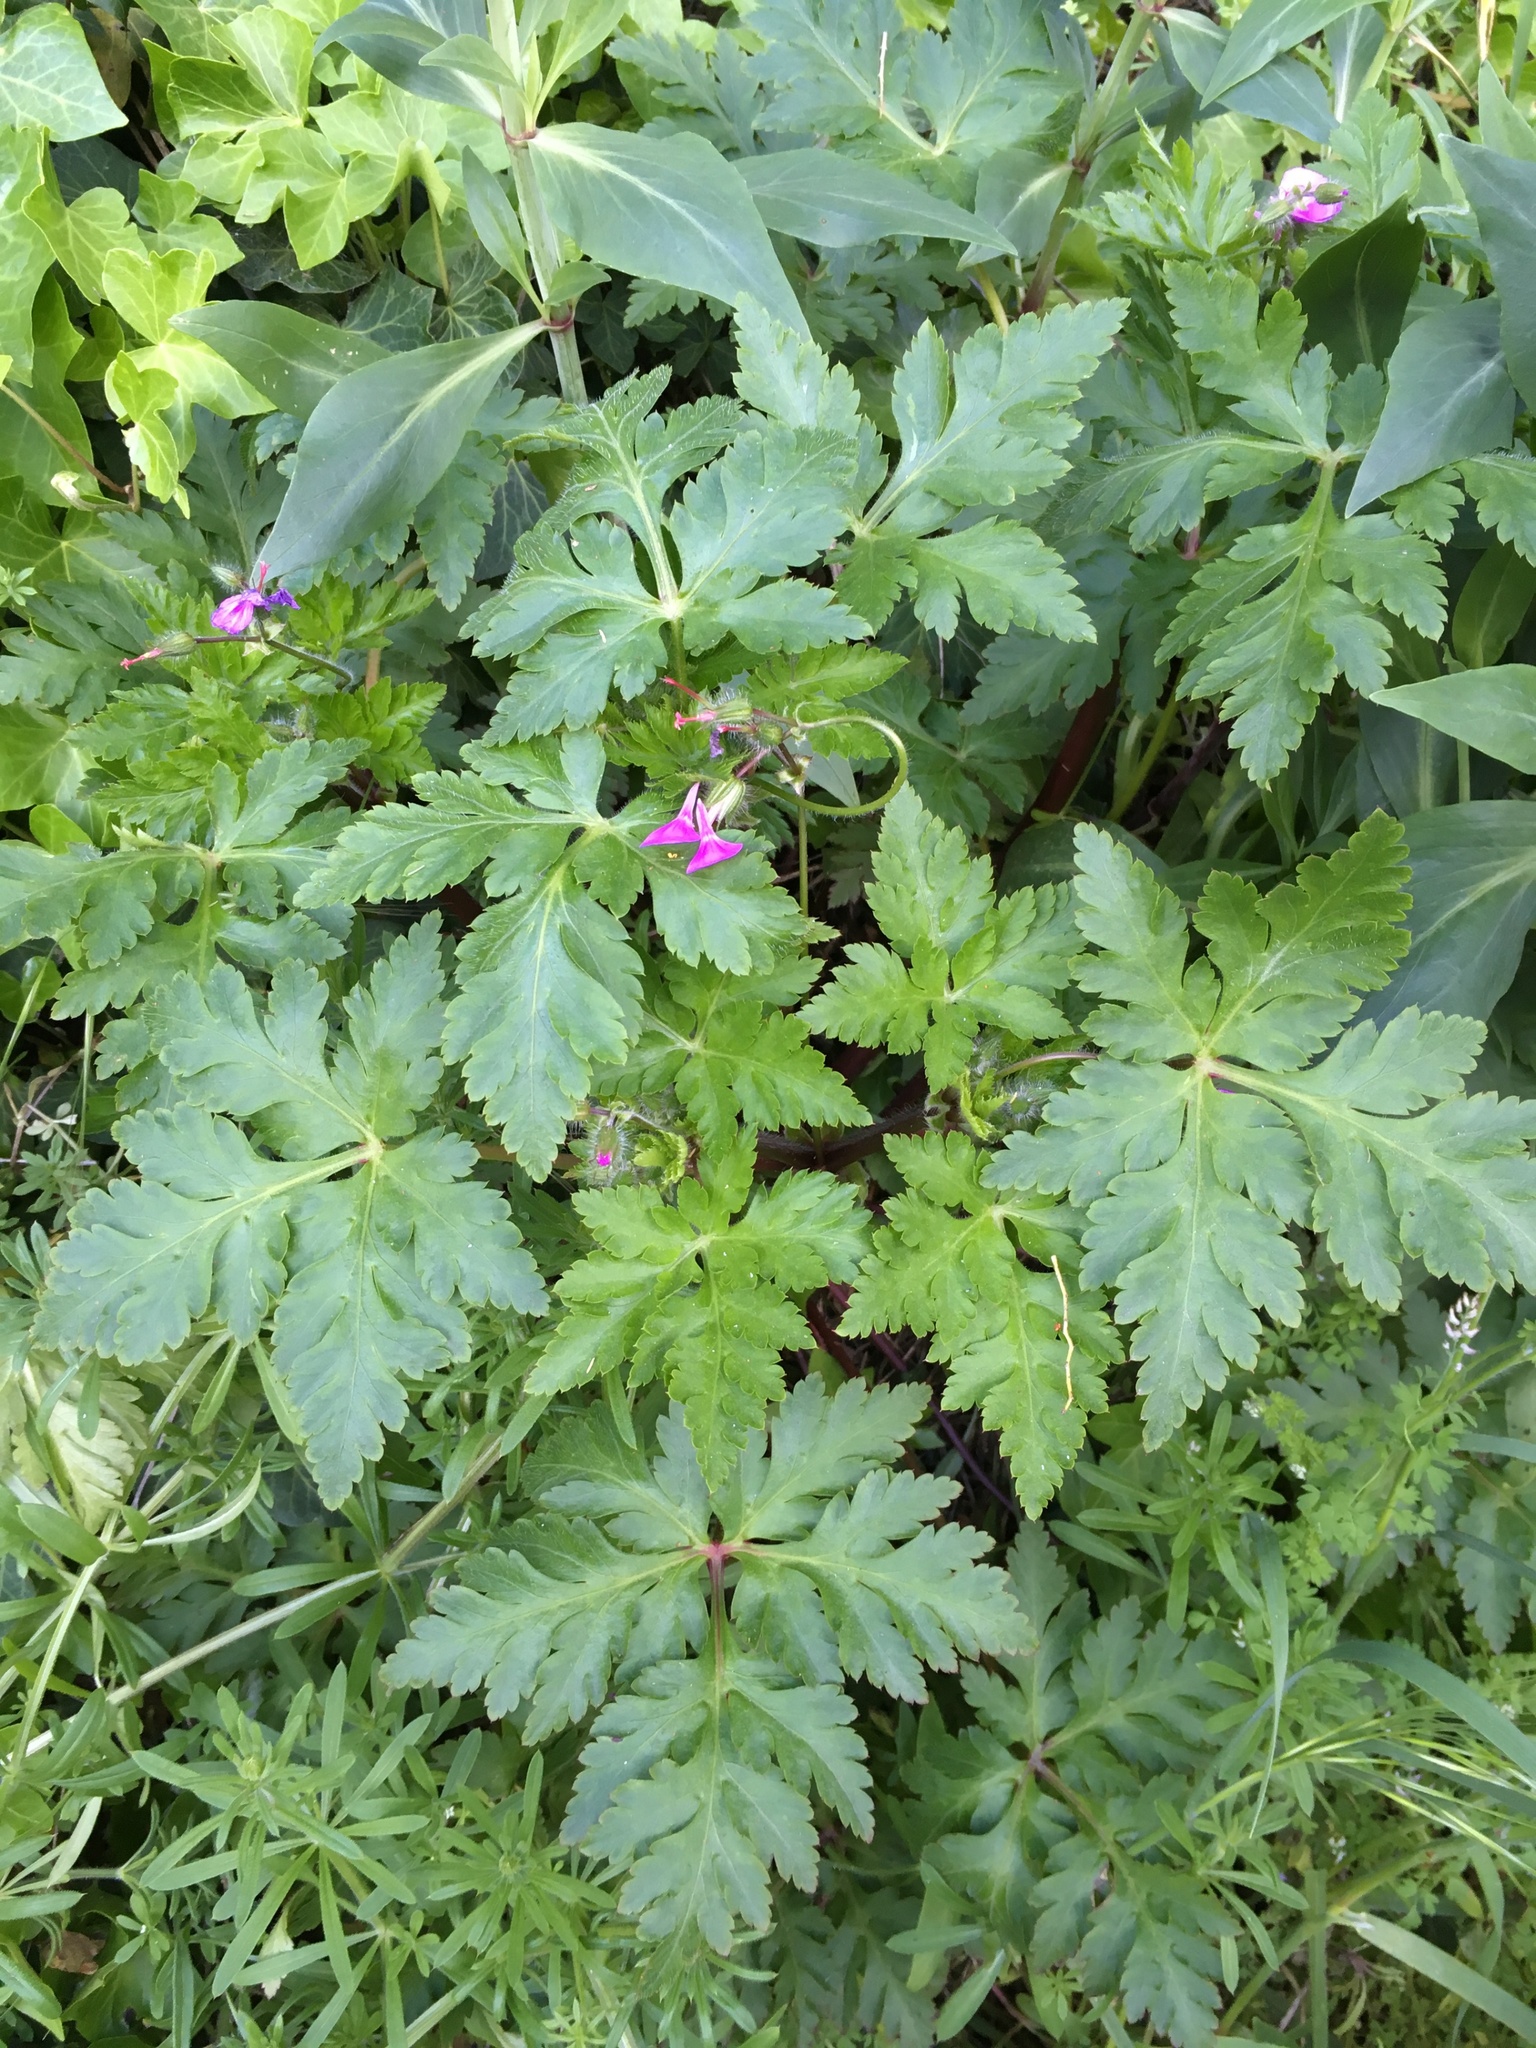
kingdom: Plantae
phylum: Tracheophyta
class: Magnoliopsida
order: Geraniales
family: Geraniaceae
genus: Geranium
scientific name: Geranium yeoi
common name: Greater herb robert
